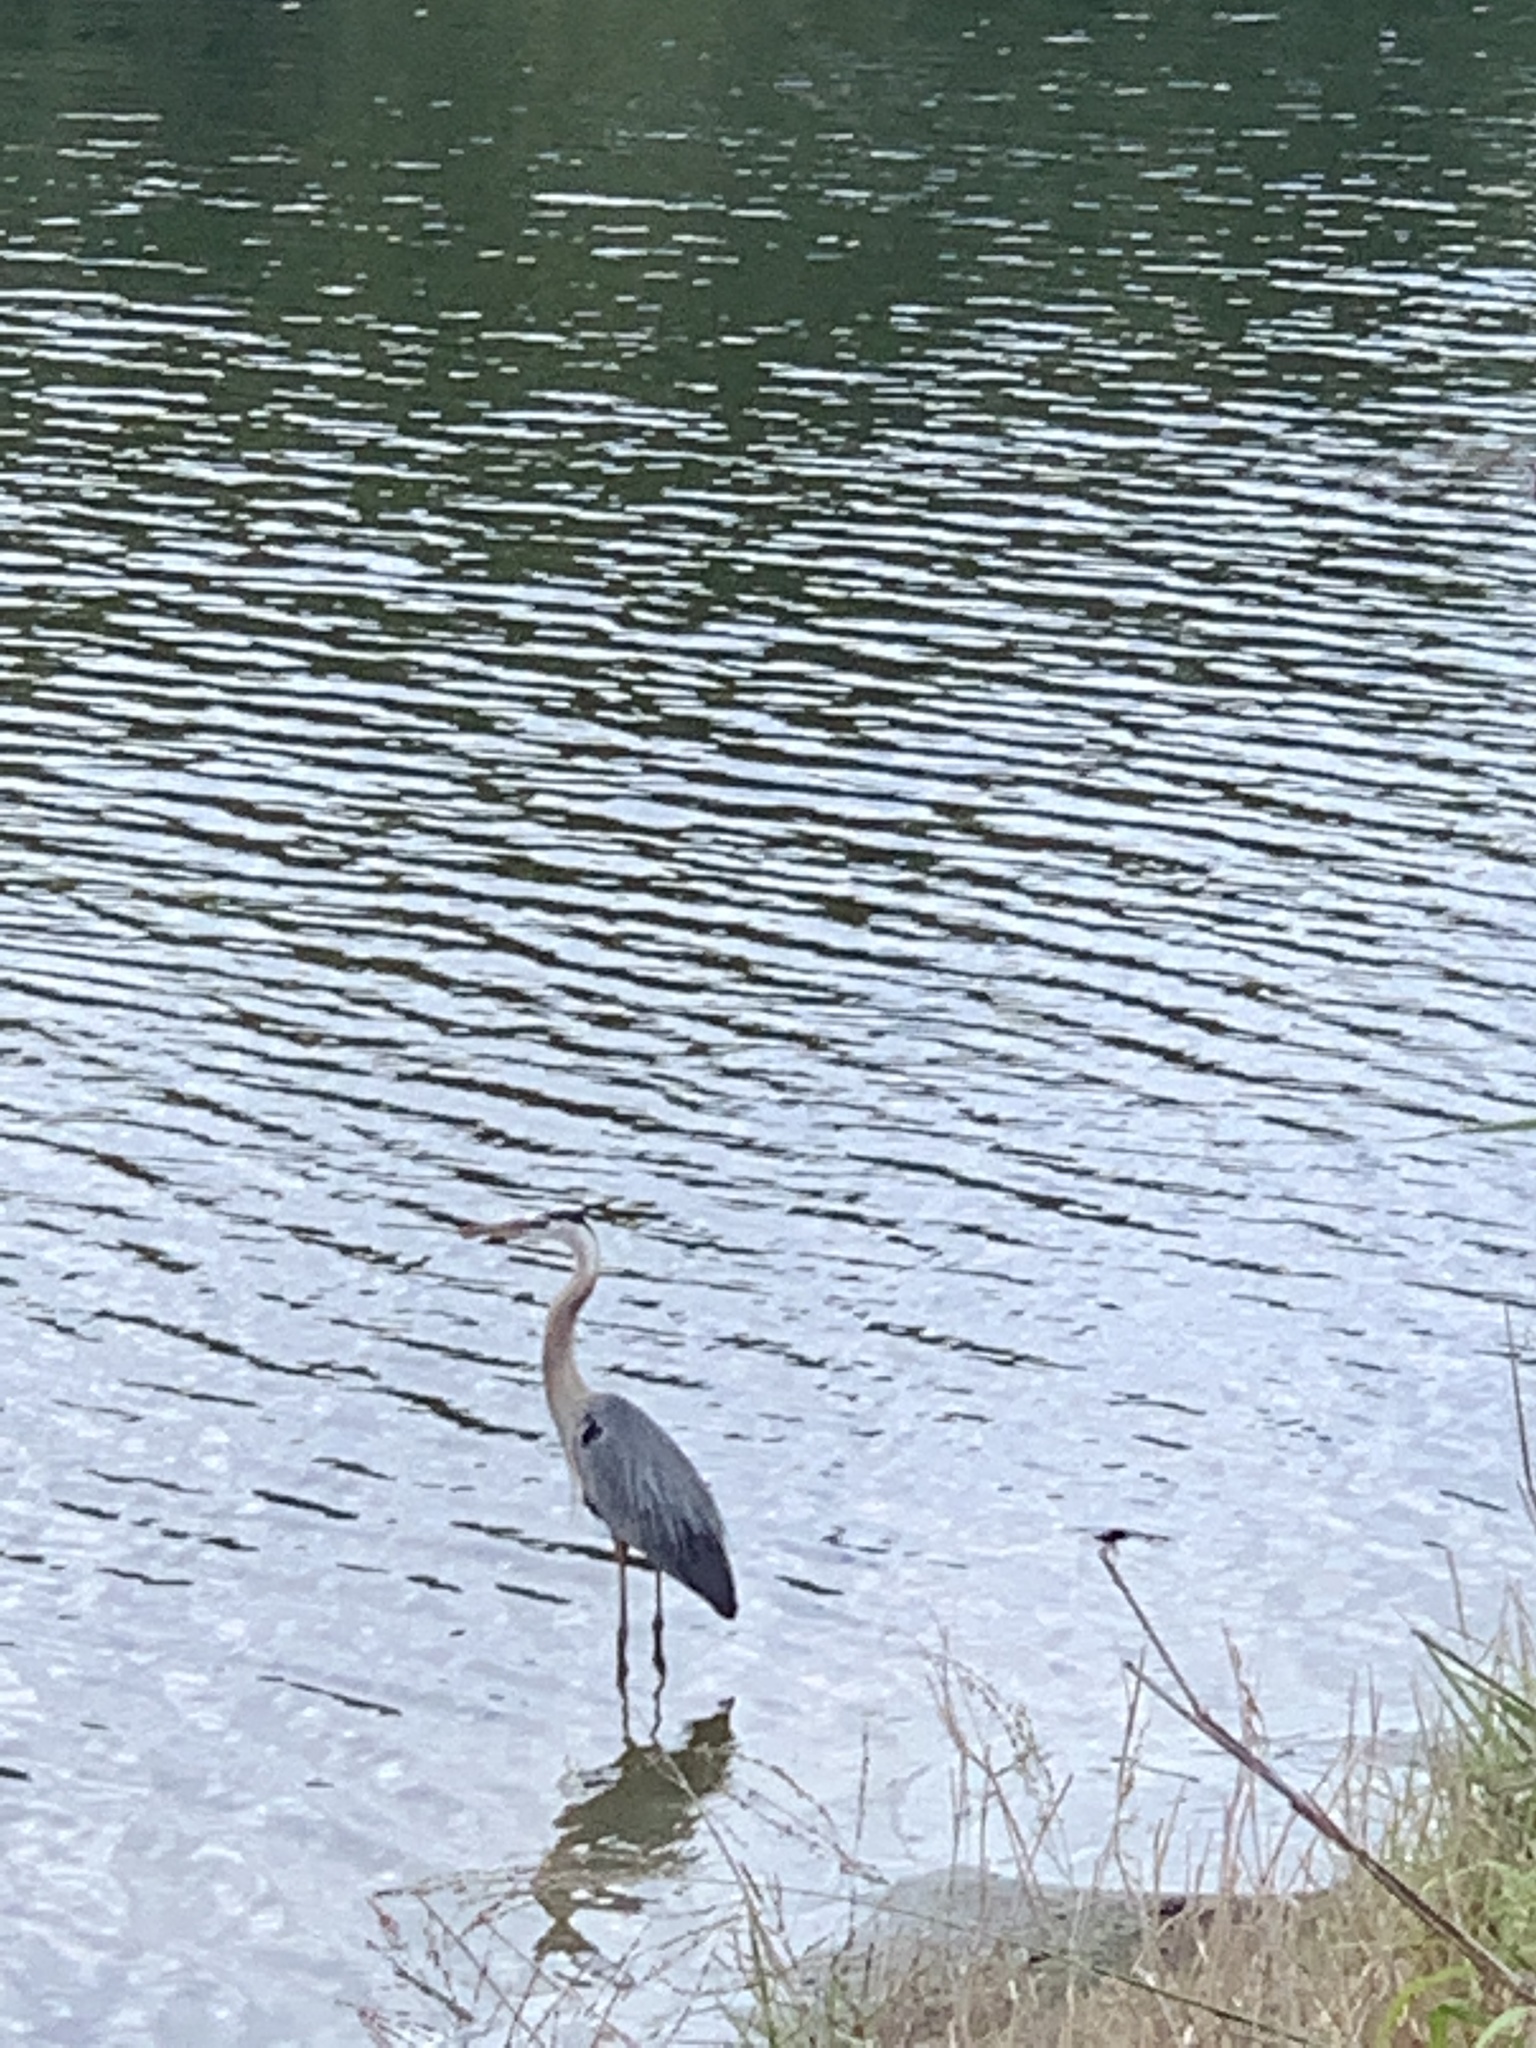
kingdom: Animalia
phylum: Chordata
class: Aves
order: Pelecaniformes
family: Ardeidae
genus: Ardea
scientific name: Ardea herodias
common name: Great blue heron
